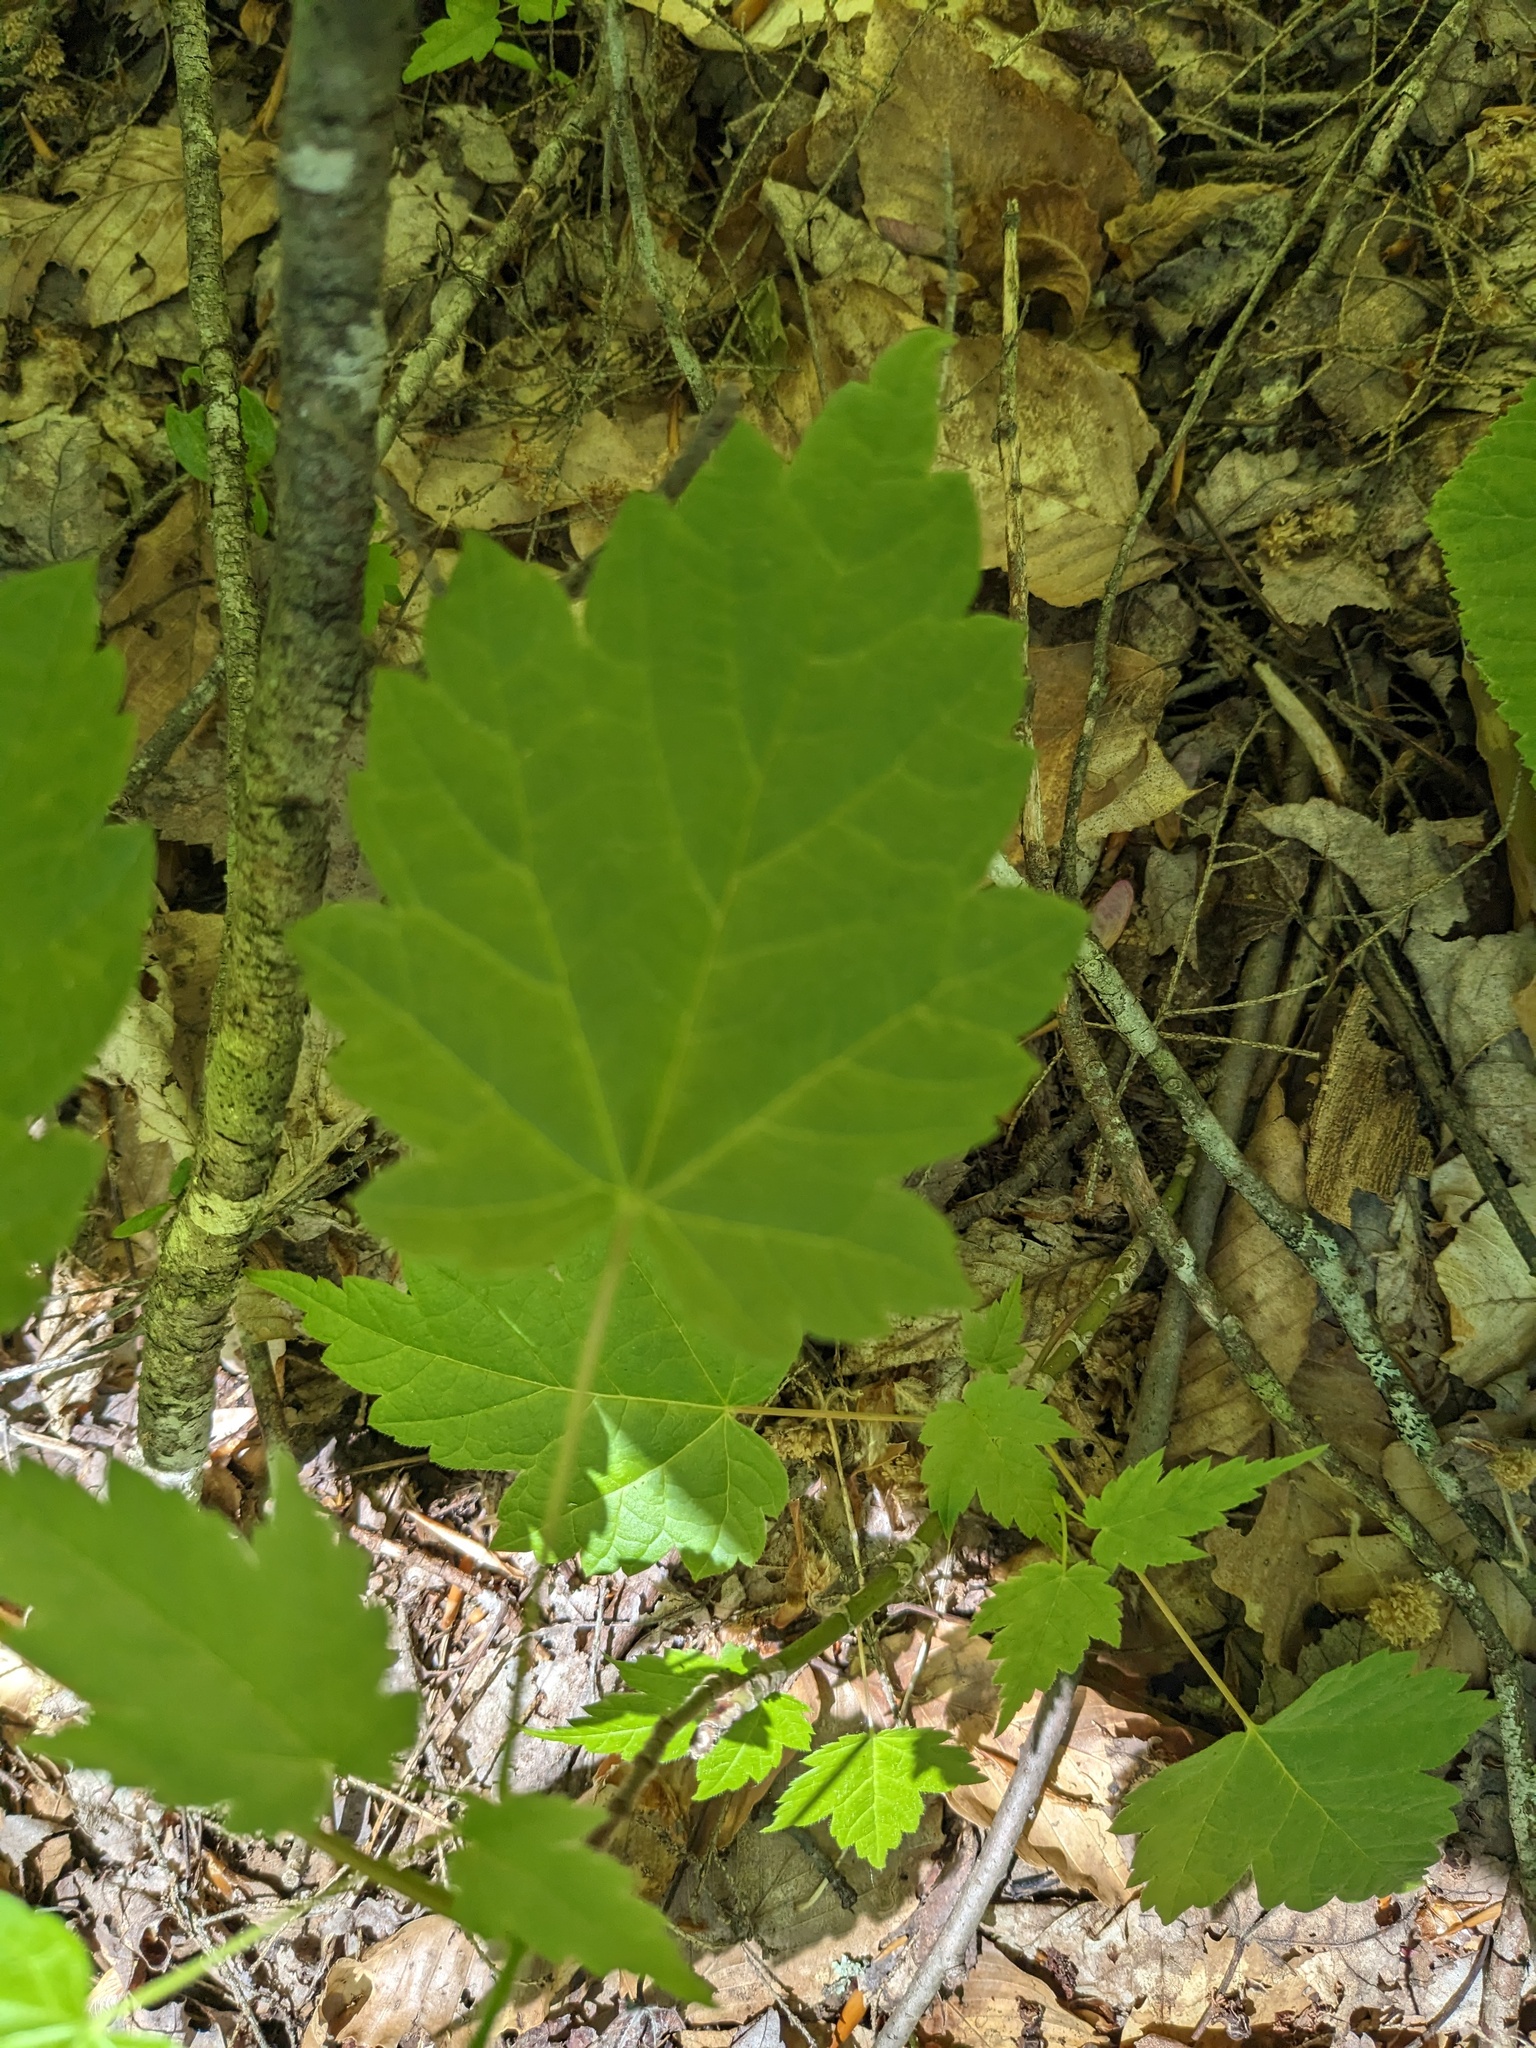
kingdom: Plantae
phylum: Tracheophyta
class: Magnoliopsida
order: Sapindales
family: Sapindaceae
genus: Acer
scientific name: Acer spicatum
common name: Mountain maple
